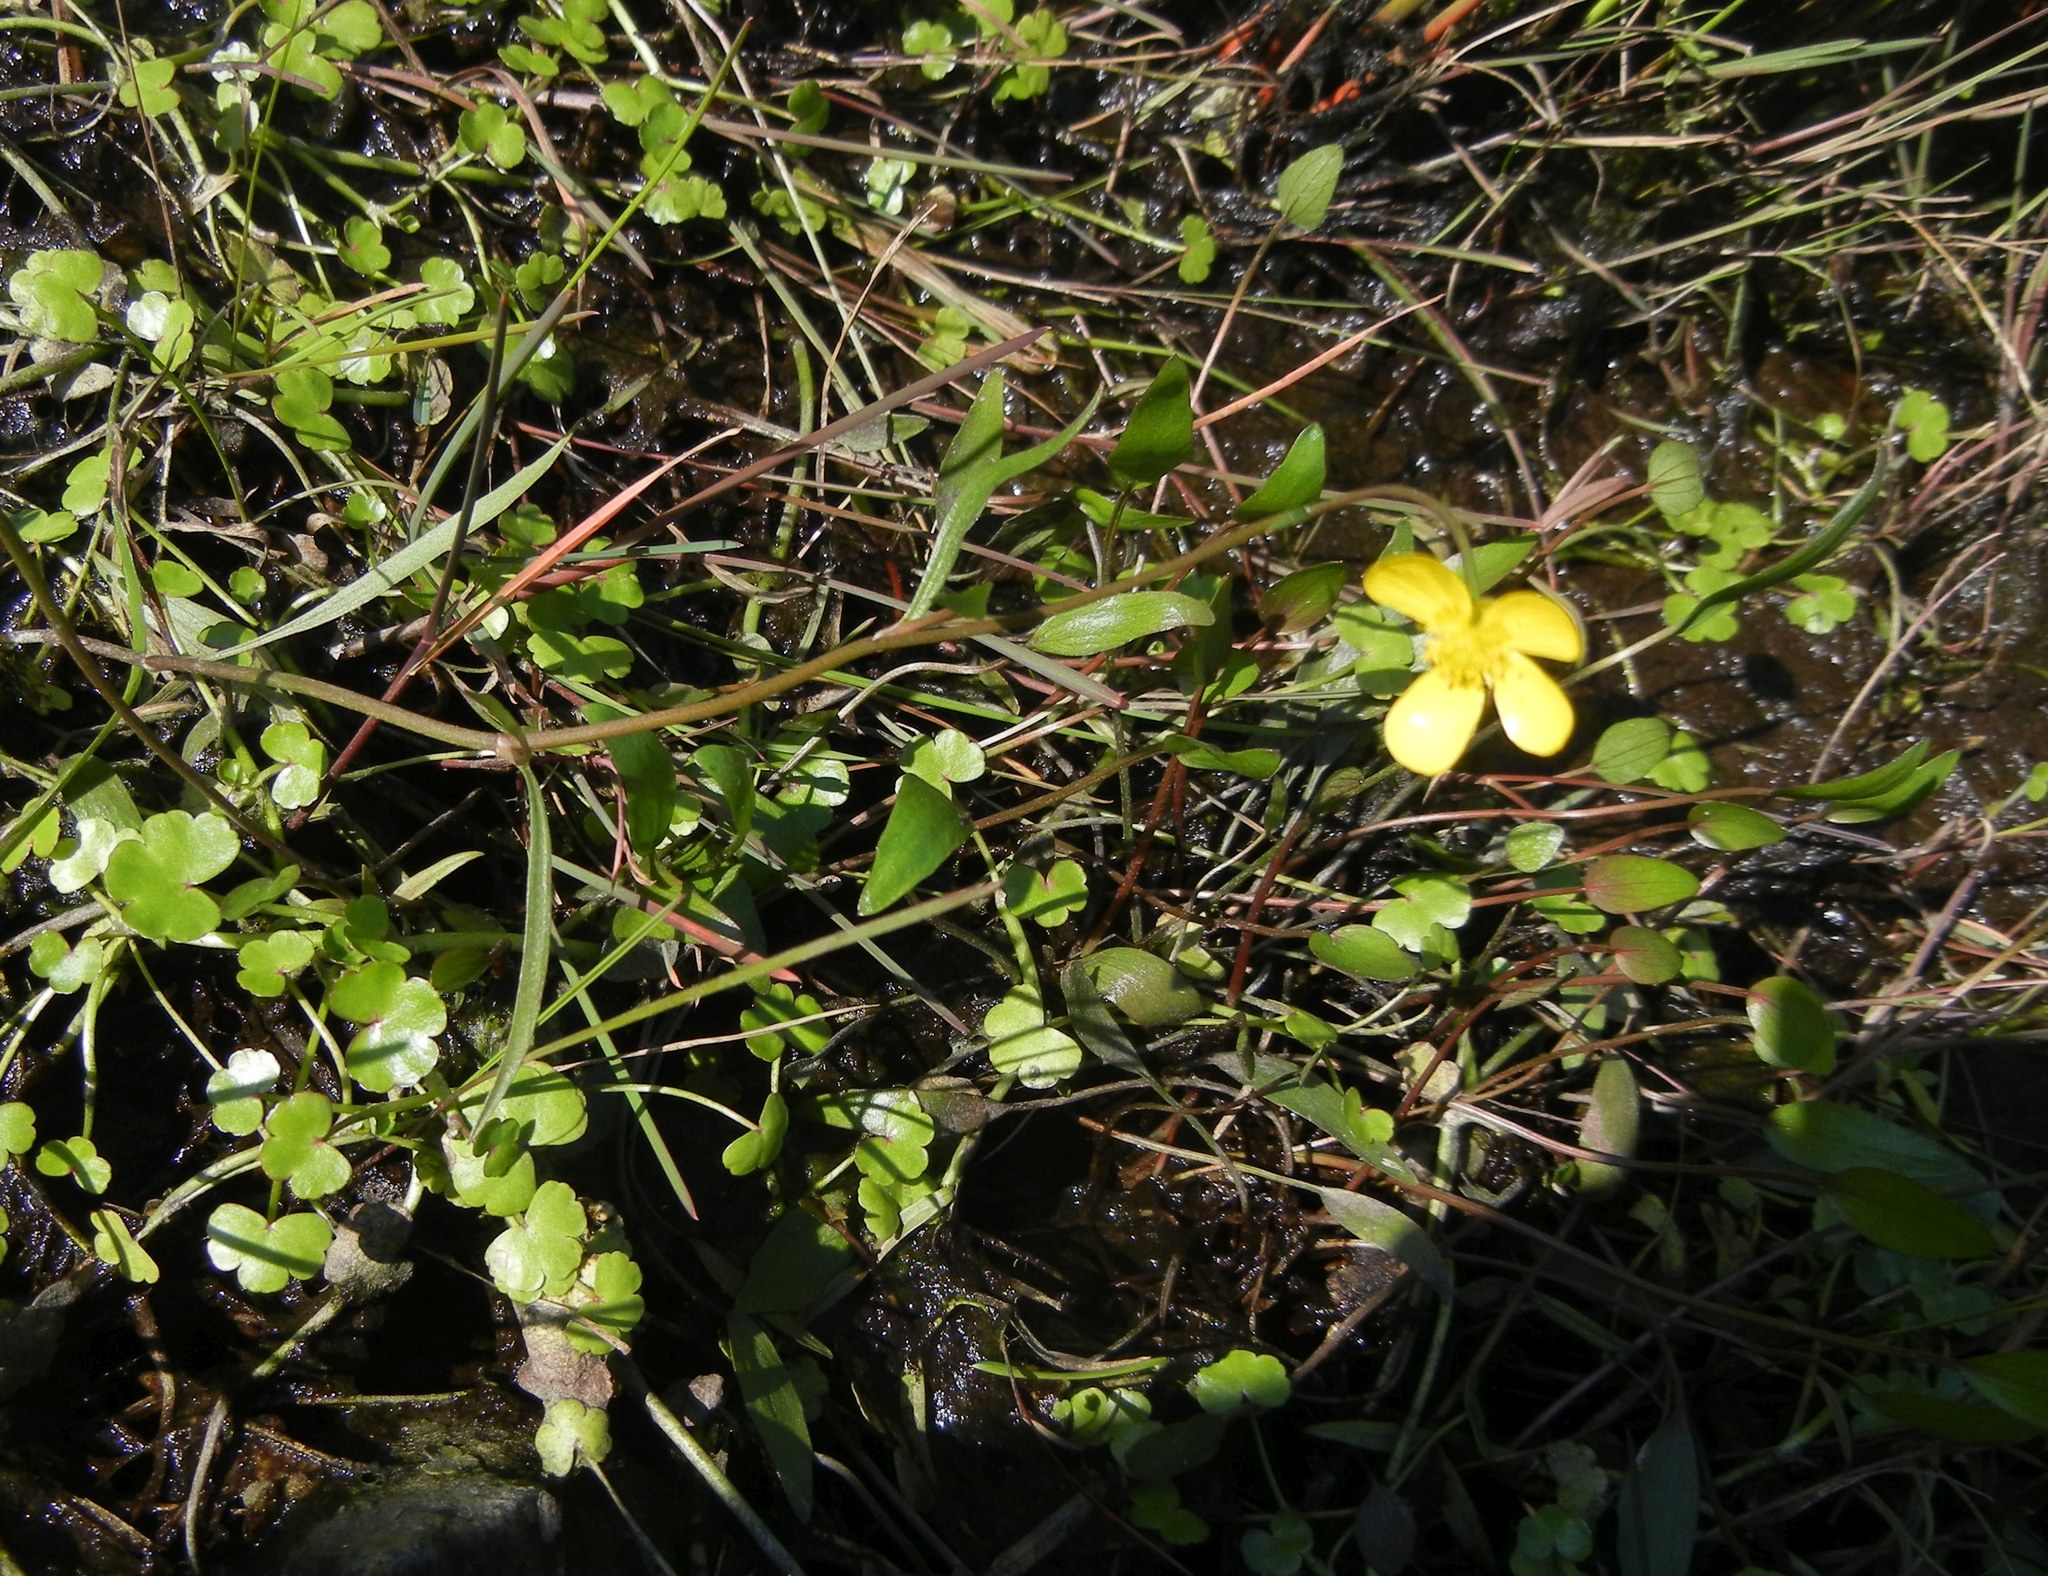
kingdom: Plantae
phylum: Tracheophyta
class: Magnoliopsida
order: Ranunculales
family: Ranunculaceae
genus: Ranunculus
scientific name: Ranunculus flammula
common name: Lesser spearwort
